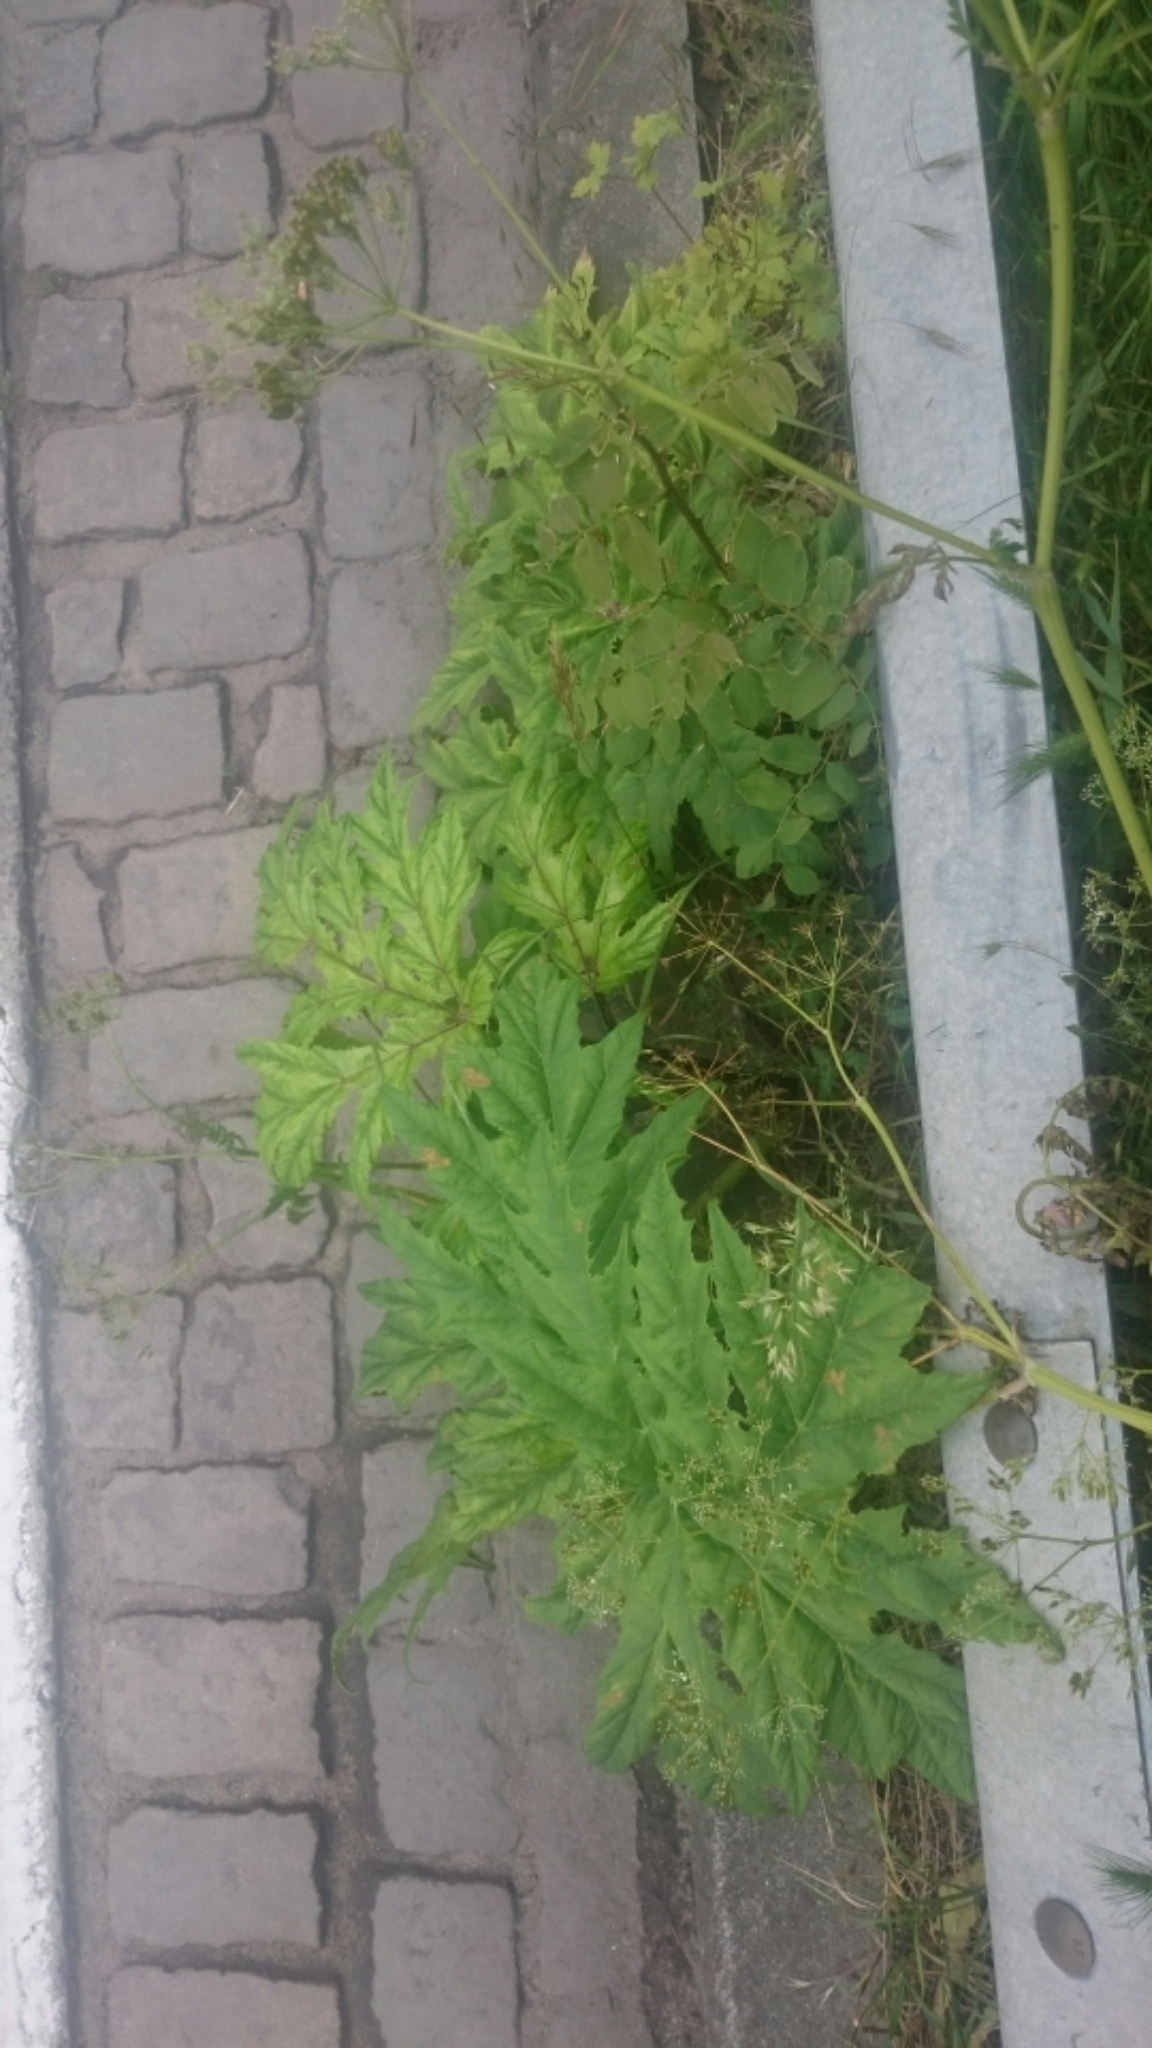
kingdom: Plantae
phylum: Tracheophyta
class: Magnoliopsida
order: Apiales
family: Apiaceae
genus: Heracleum
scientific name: Heracleum mantegazzianum
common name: Giant hogweed
